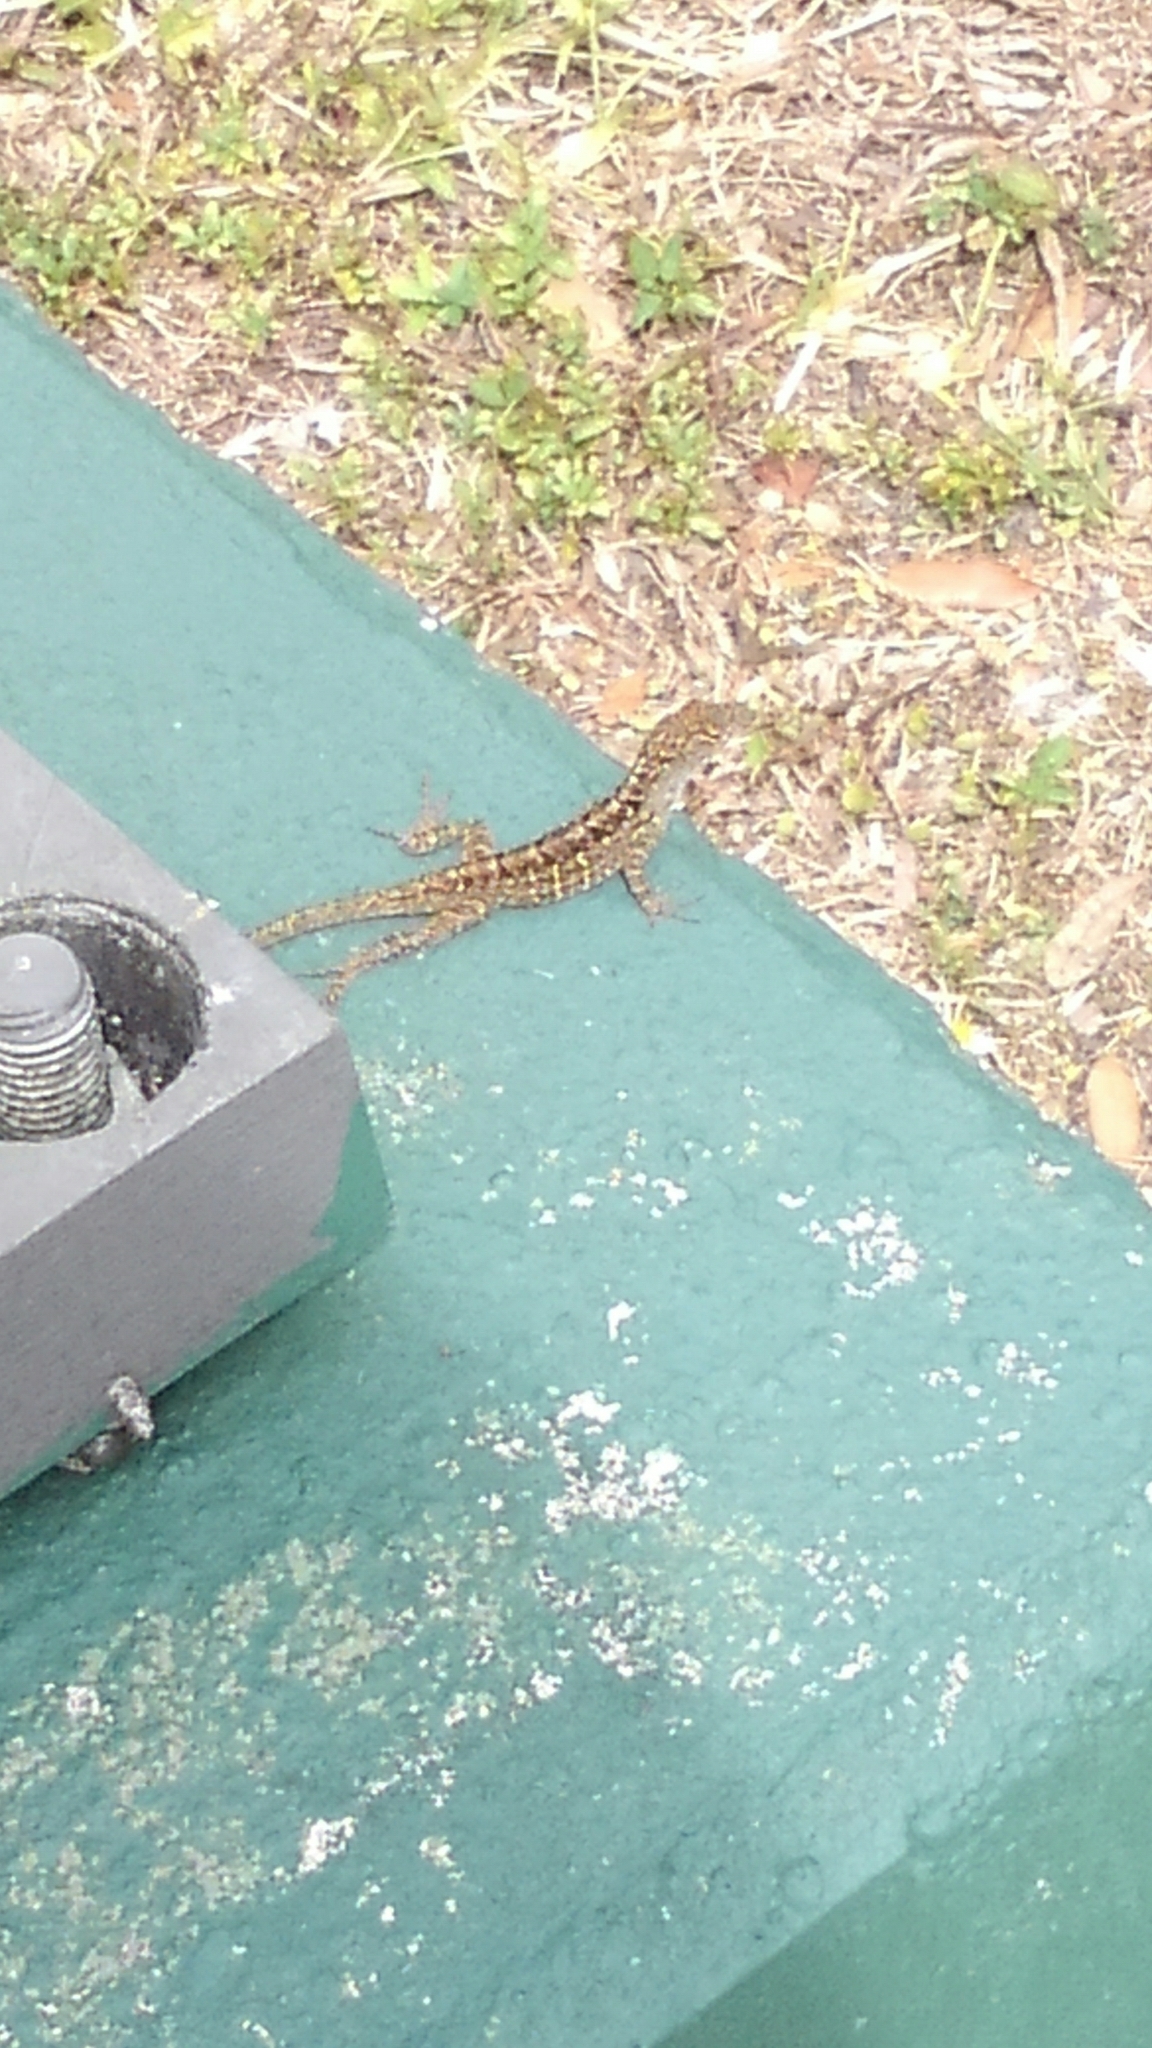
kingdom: Animalia
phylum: Chordata
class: Squamata
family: Dactyloidae
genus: Anolis
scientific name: Anolis sagrei
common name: Brown anole
